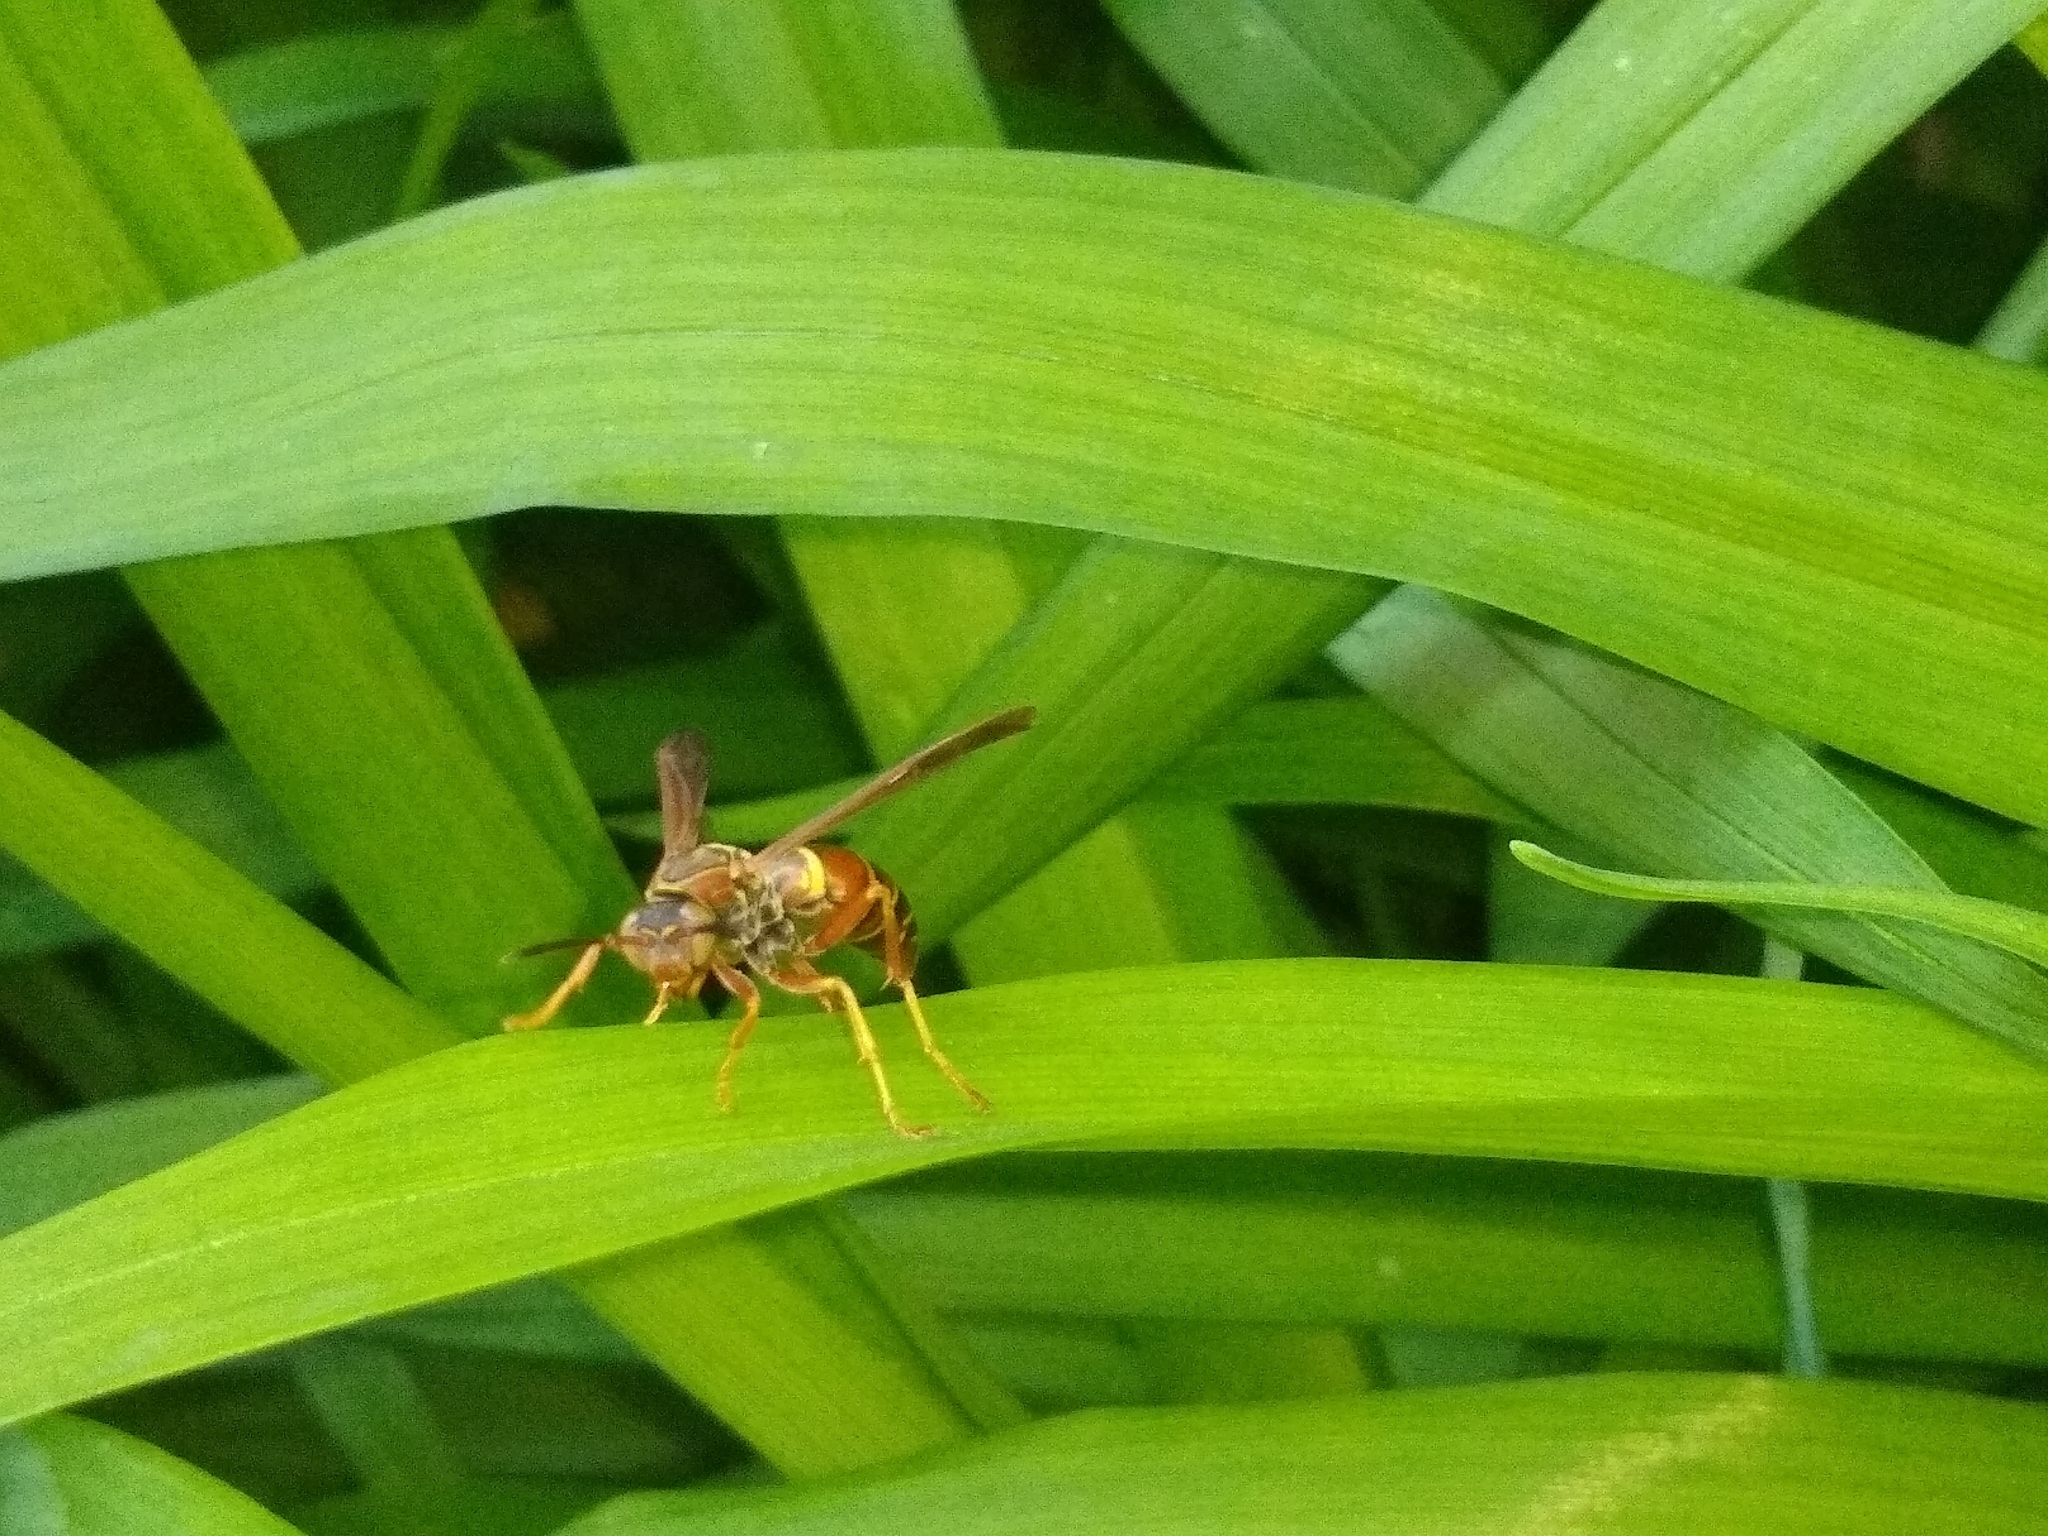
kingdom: Animalia
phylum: Arthropoda
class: Insecta
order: Hymenoptera
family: Eumenidae
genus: Polistes
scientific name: Polistes fuscatus
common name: Dark paper wasp
